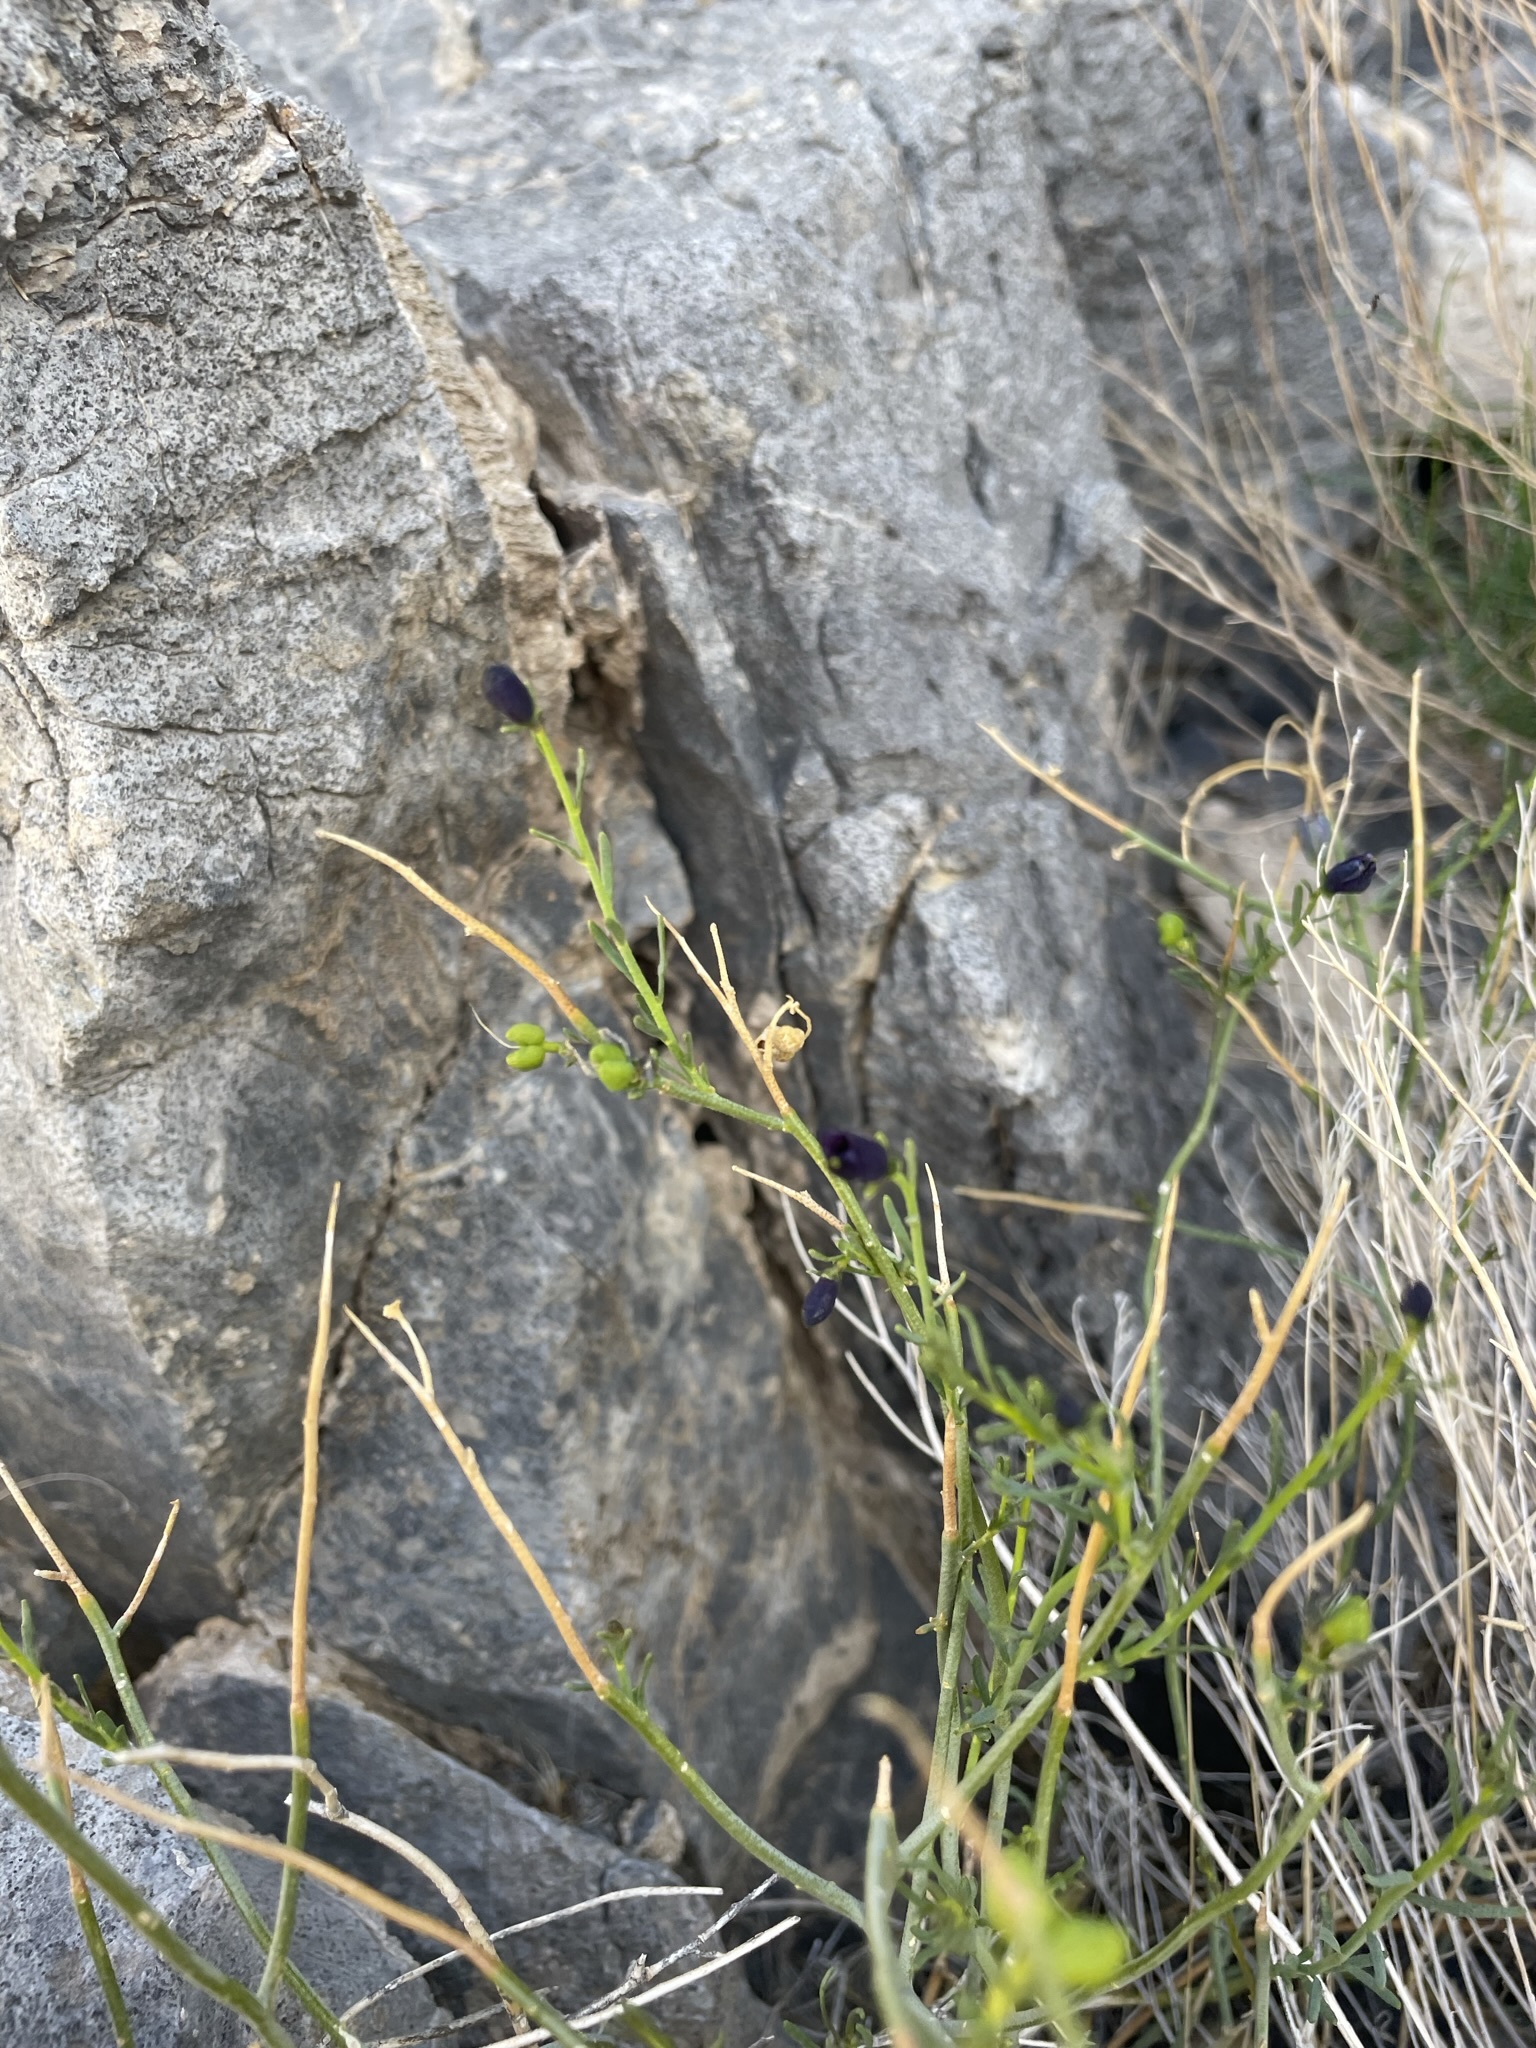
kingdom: Plantae
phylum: Tracheophyta
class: Magnoliopsida
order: Sapindales
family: Rutaceae
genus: Thamnosma
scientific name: Thamnosma montana
